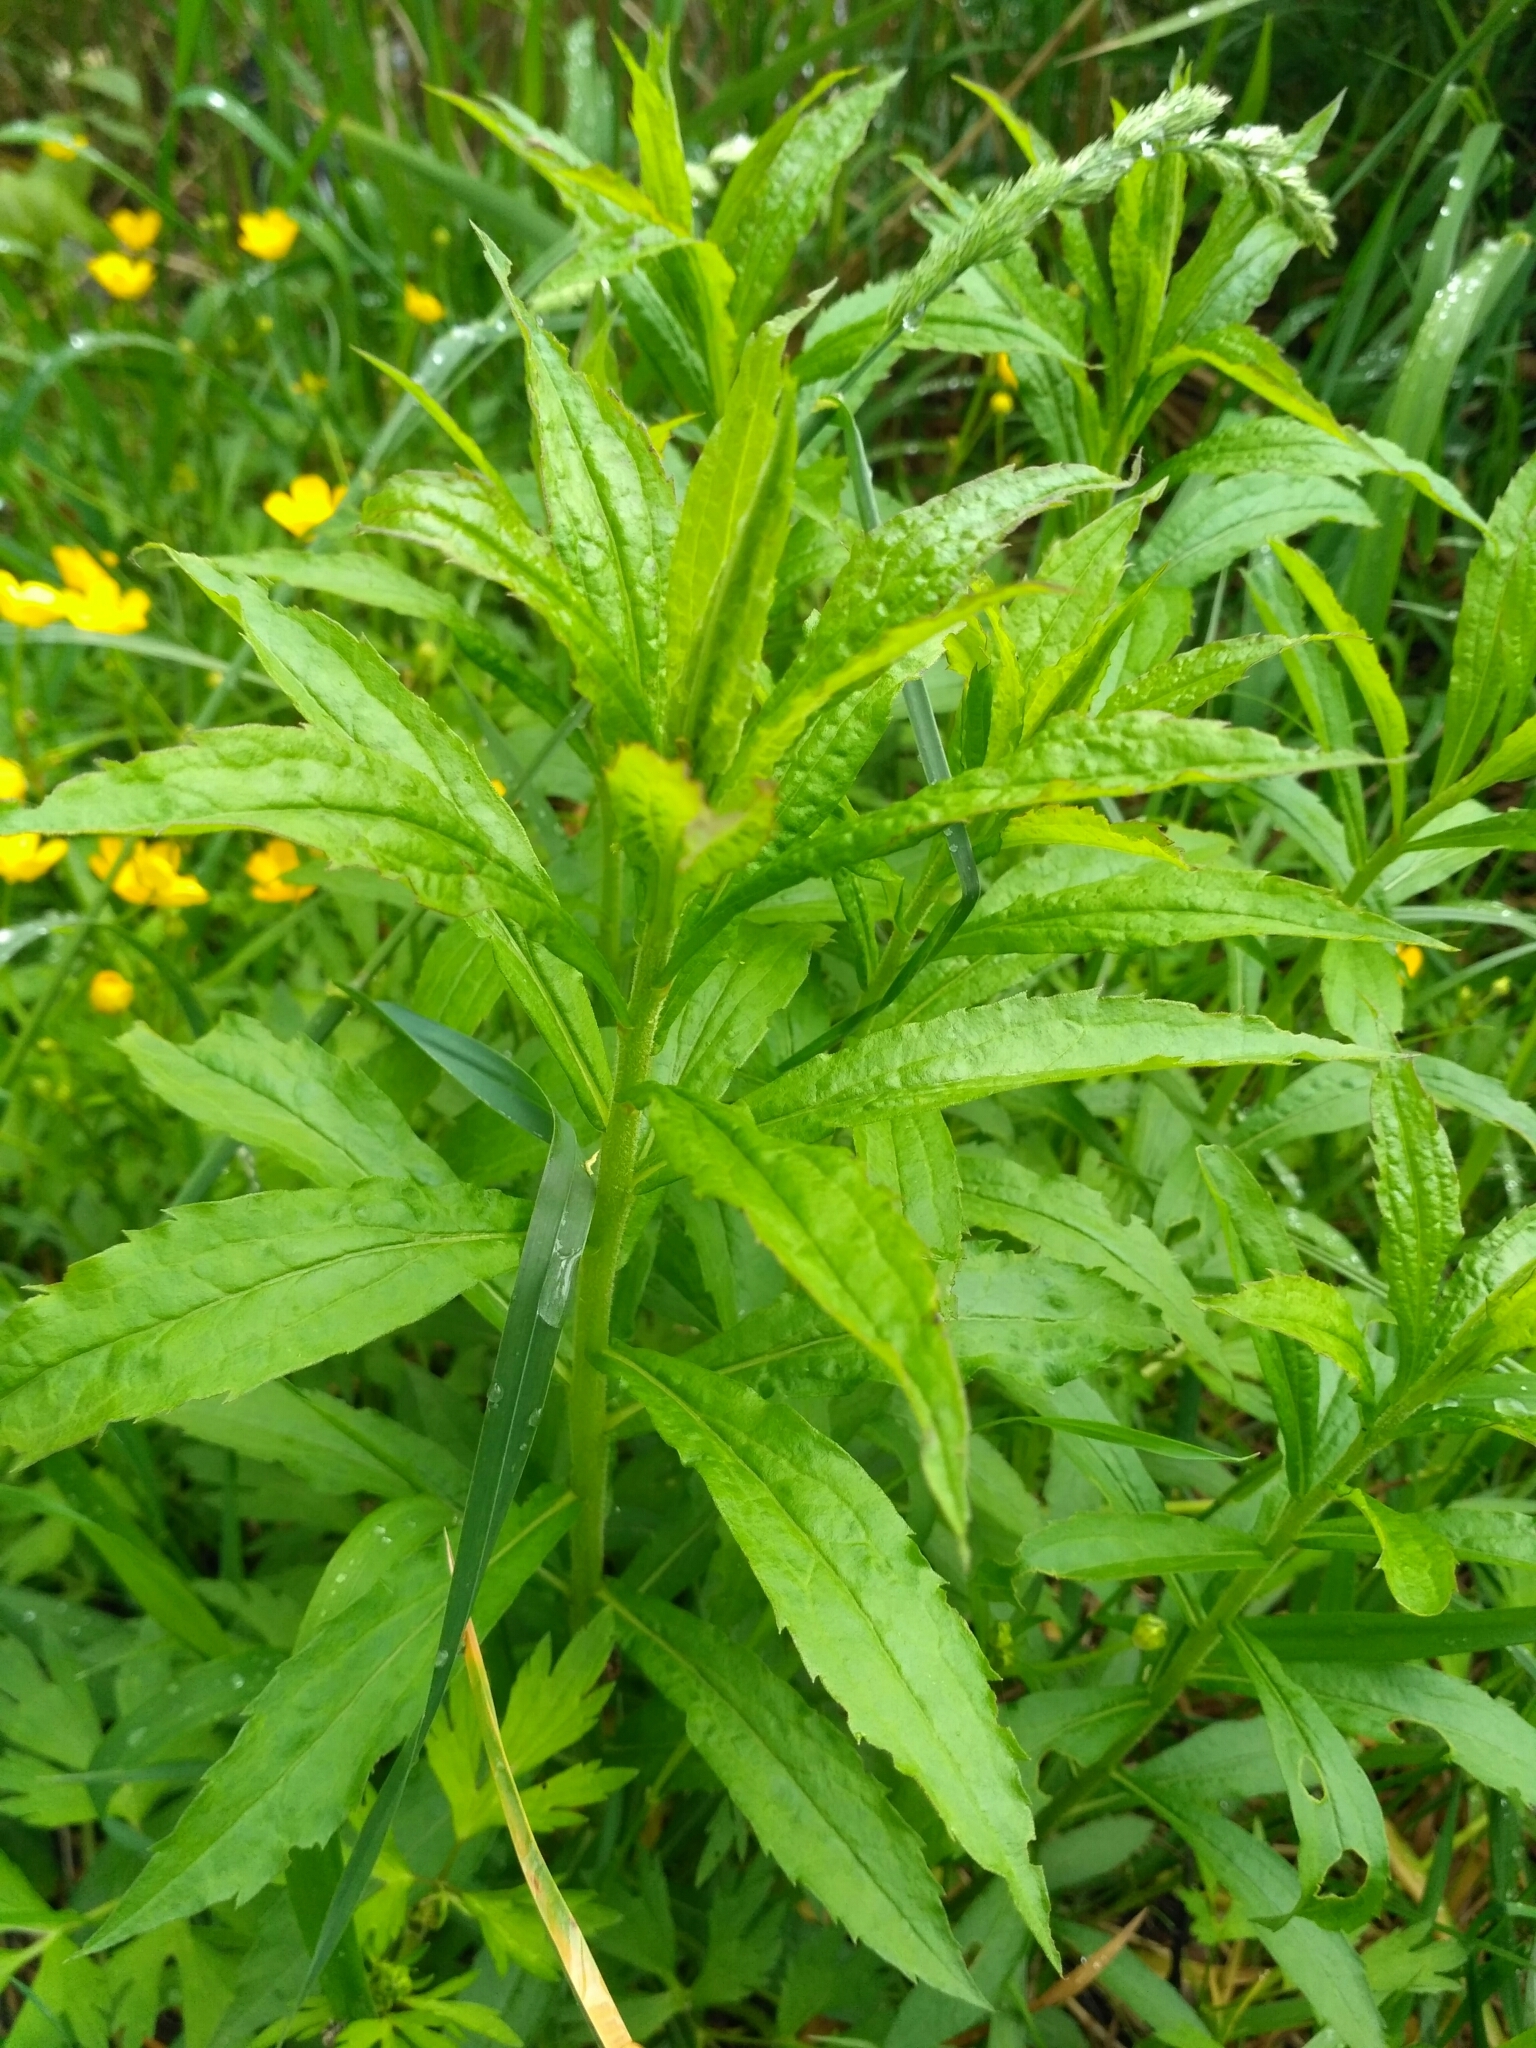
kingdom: Plantae
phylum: Tracheophyta
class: Magnoliopsida
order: Asterales
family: Asteraceae
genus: Solidago
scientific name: Solidago canadensis
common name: Canada goldenrod
